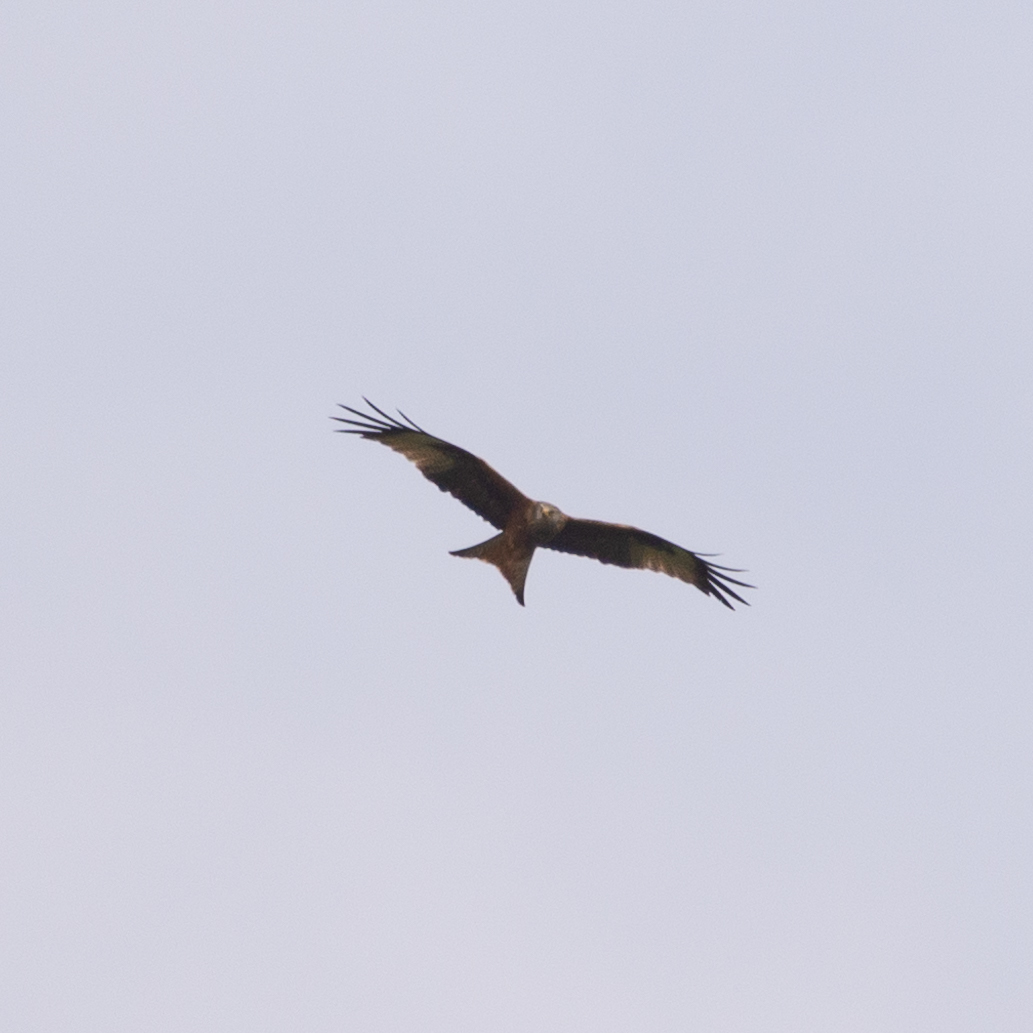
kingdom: Animalia
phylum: Chordata
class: Aves
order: Accipitriformes
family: Accipitridae
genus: Milvus
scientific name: Milvus milvus
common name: Red kite
